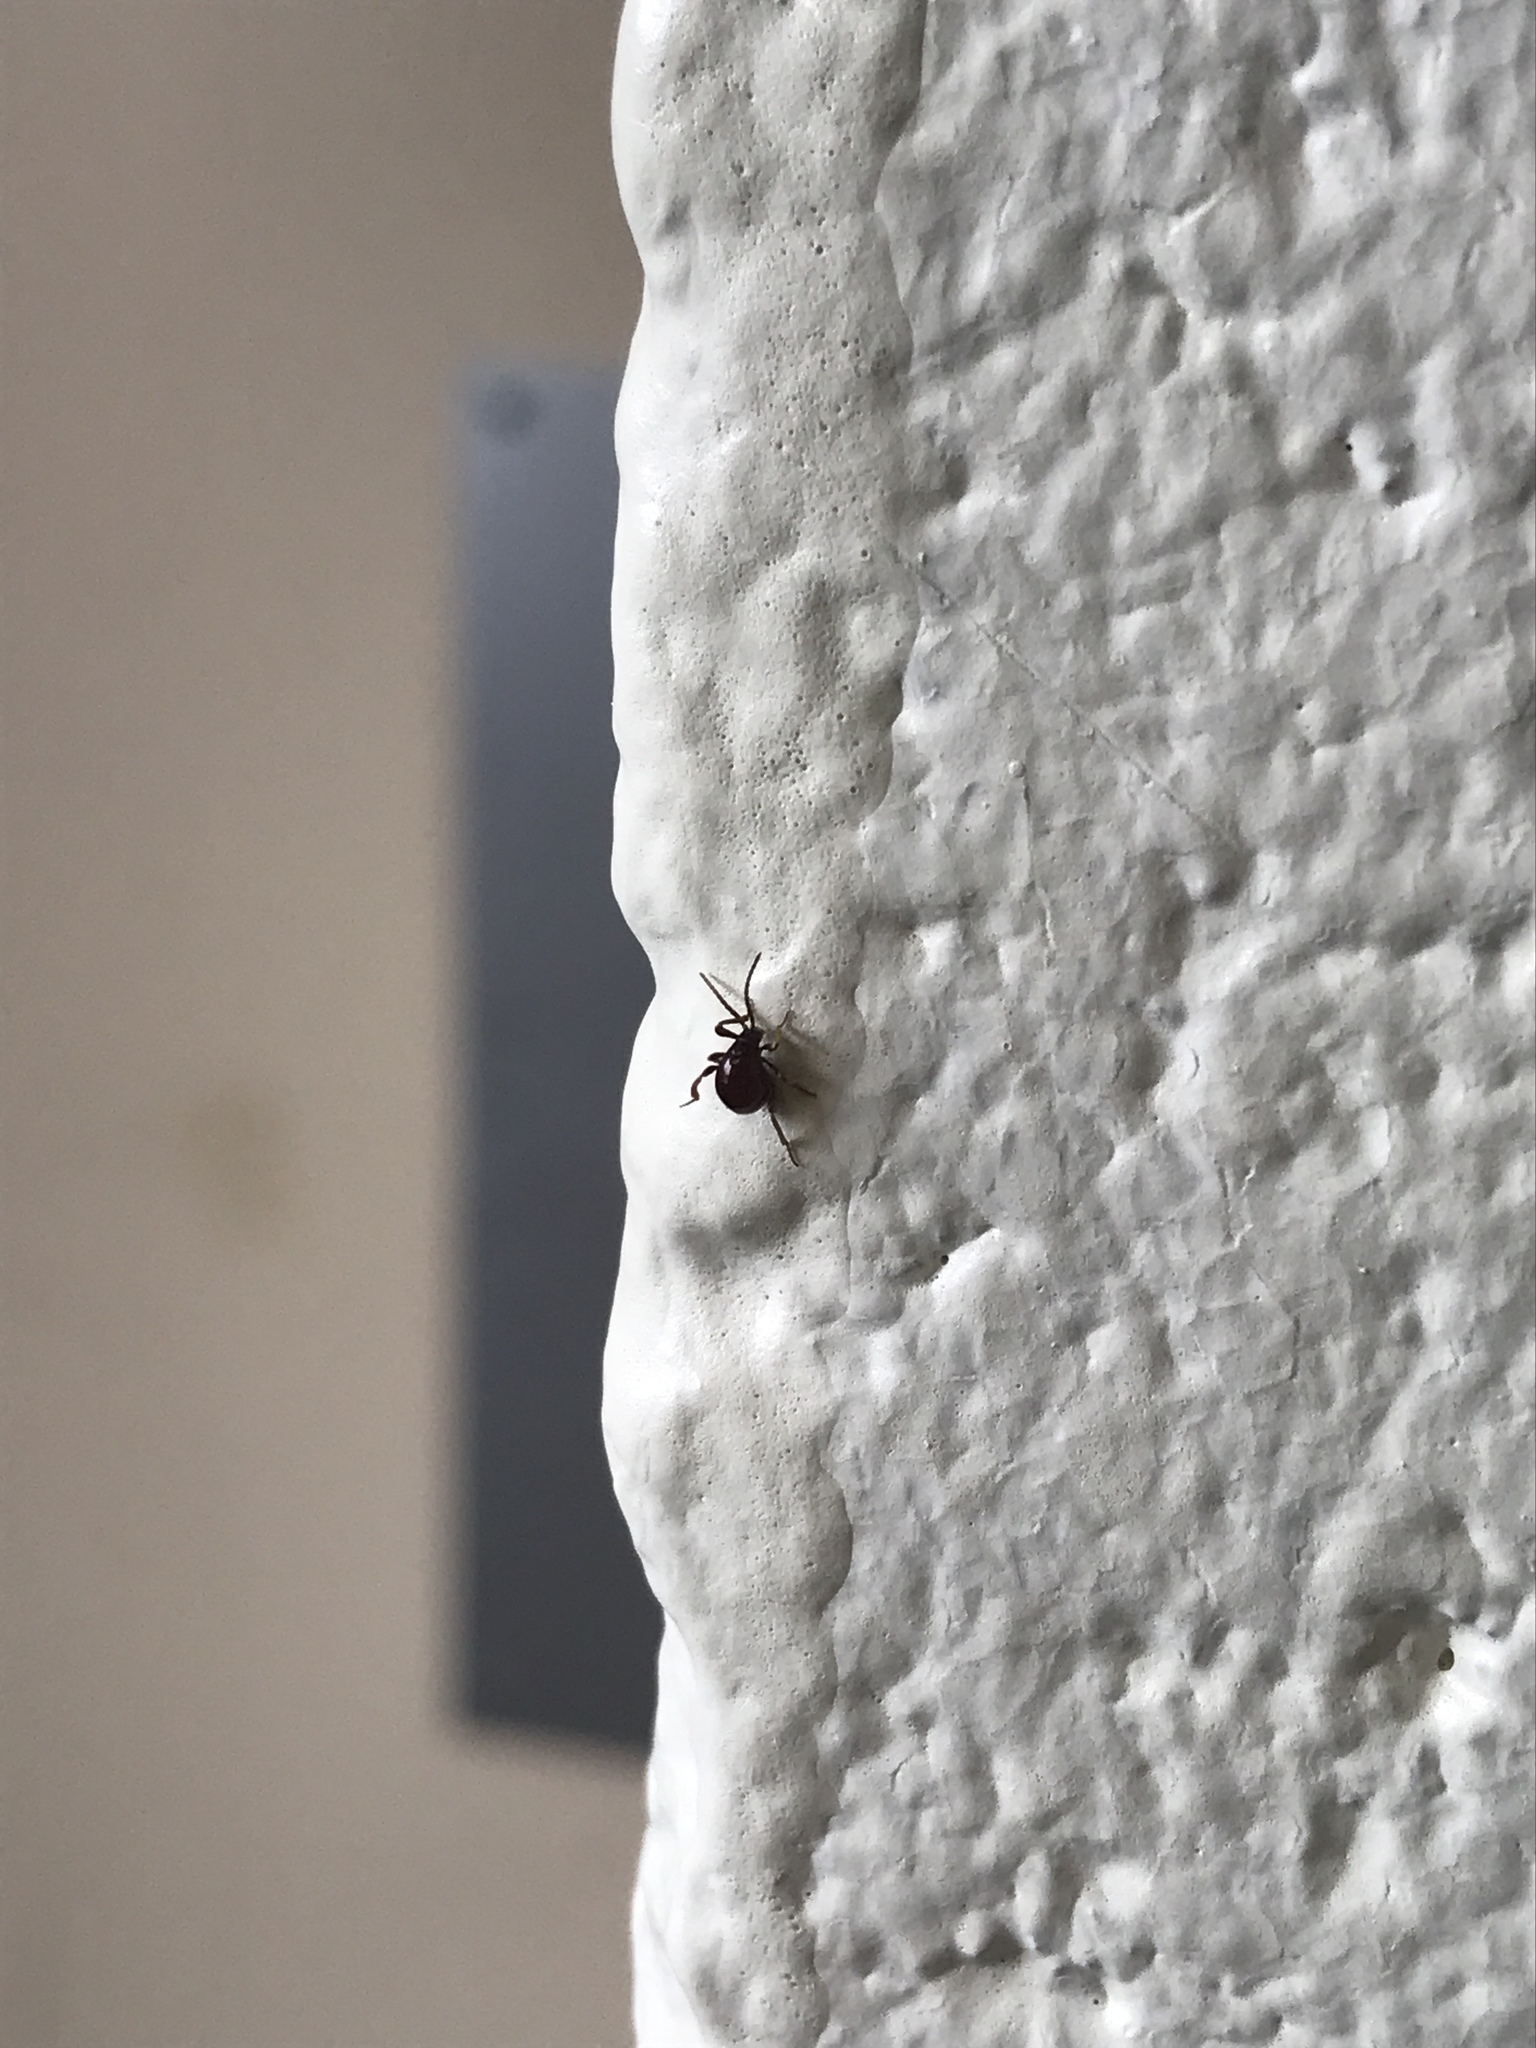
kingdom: Animalia
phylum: Arthropoda
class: Insecta
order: Coleoptera
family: Ptinidae
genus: Gibbium
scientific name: Gibbium aequinoctiale
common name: Smooth spider beetle
